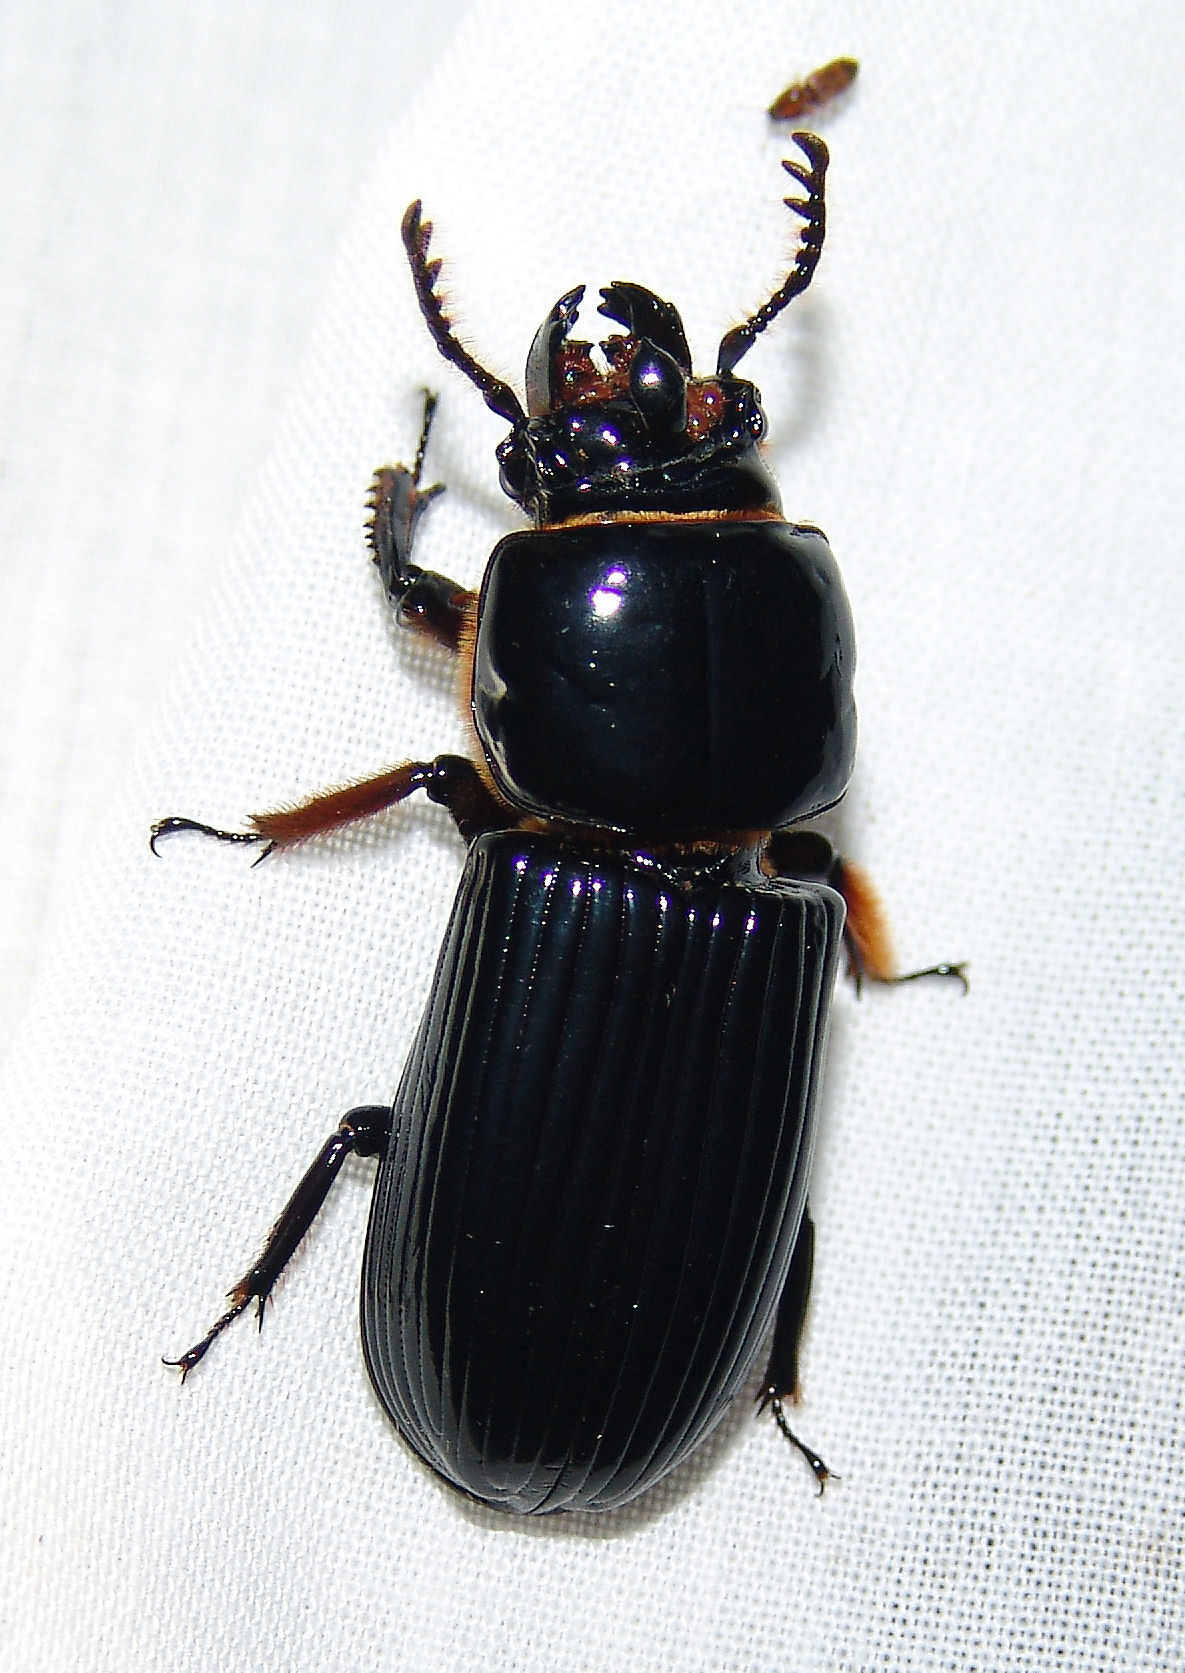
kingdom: Animalia
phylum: Arthropoda
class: Insecta
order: Coleoptera
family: Passalidae
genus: Odontotaenius
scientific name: Odontotaenius disjunctus
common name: Patent leather beetle
